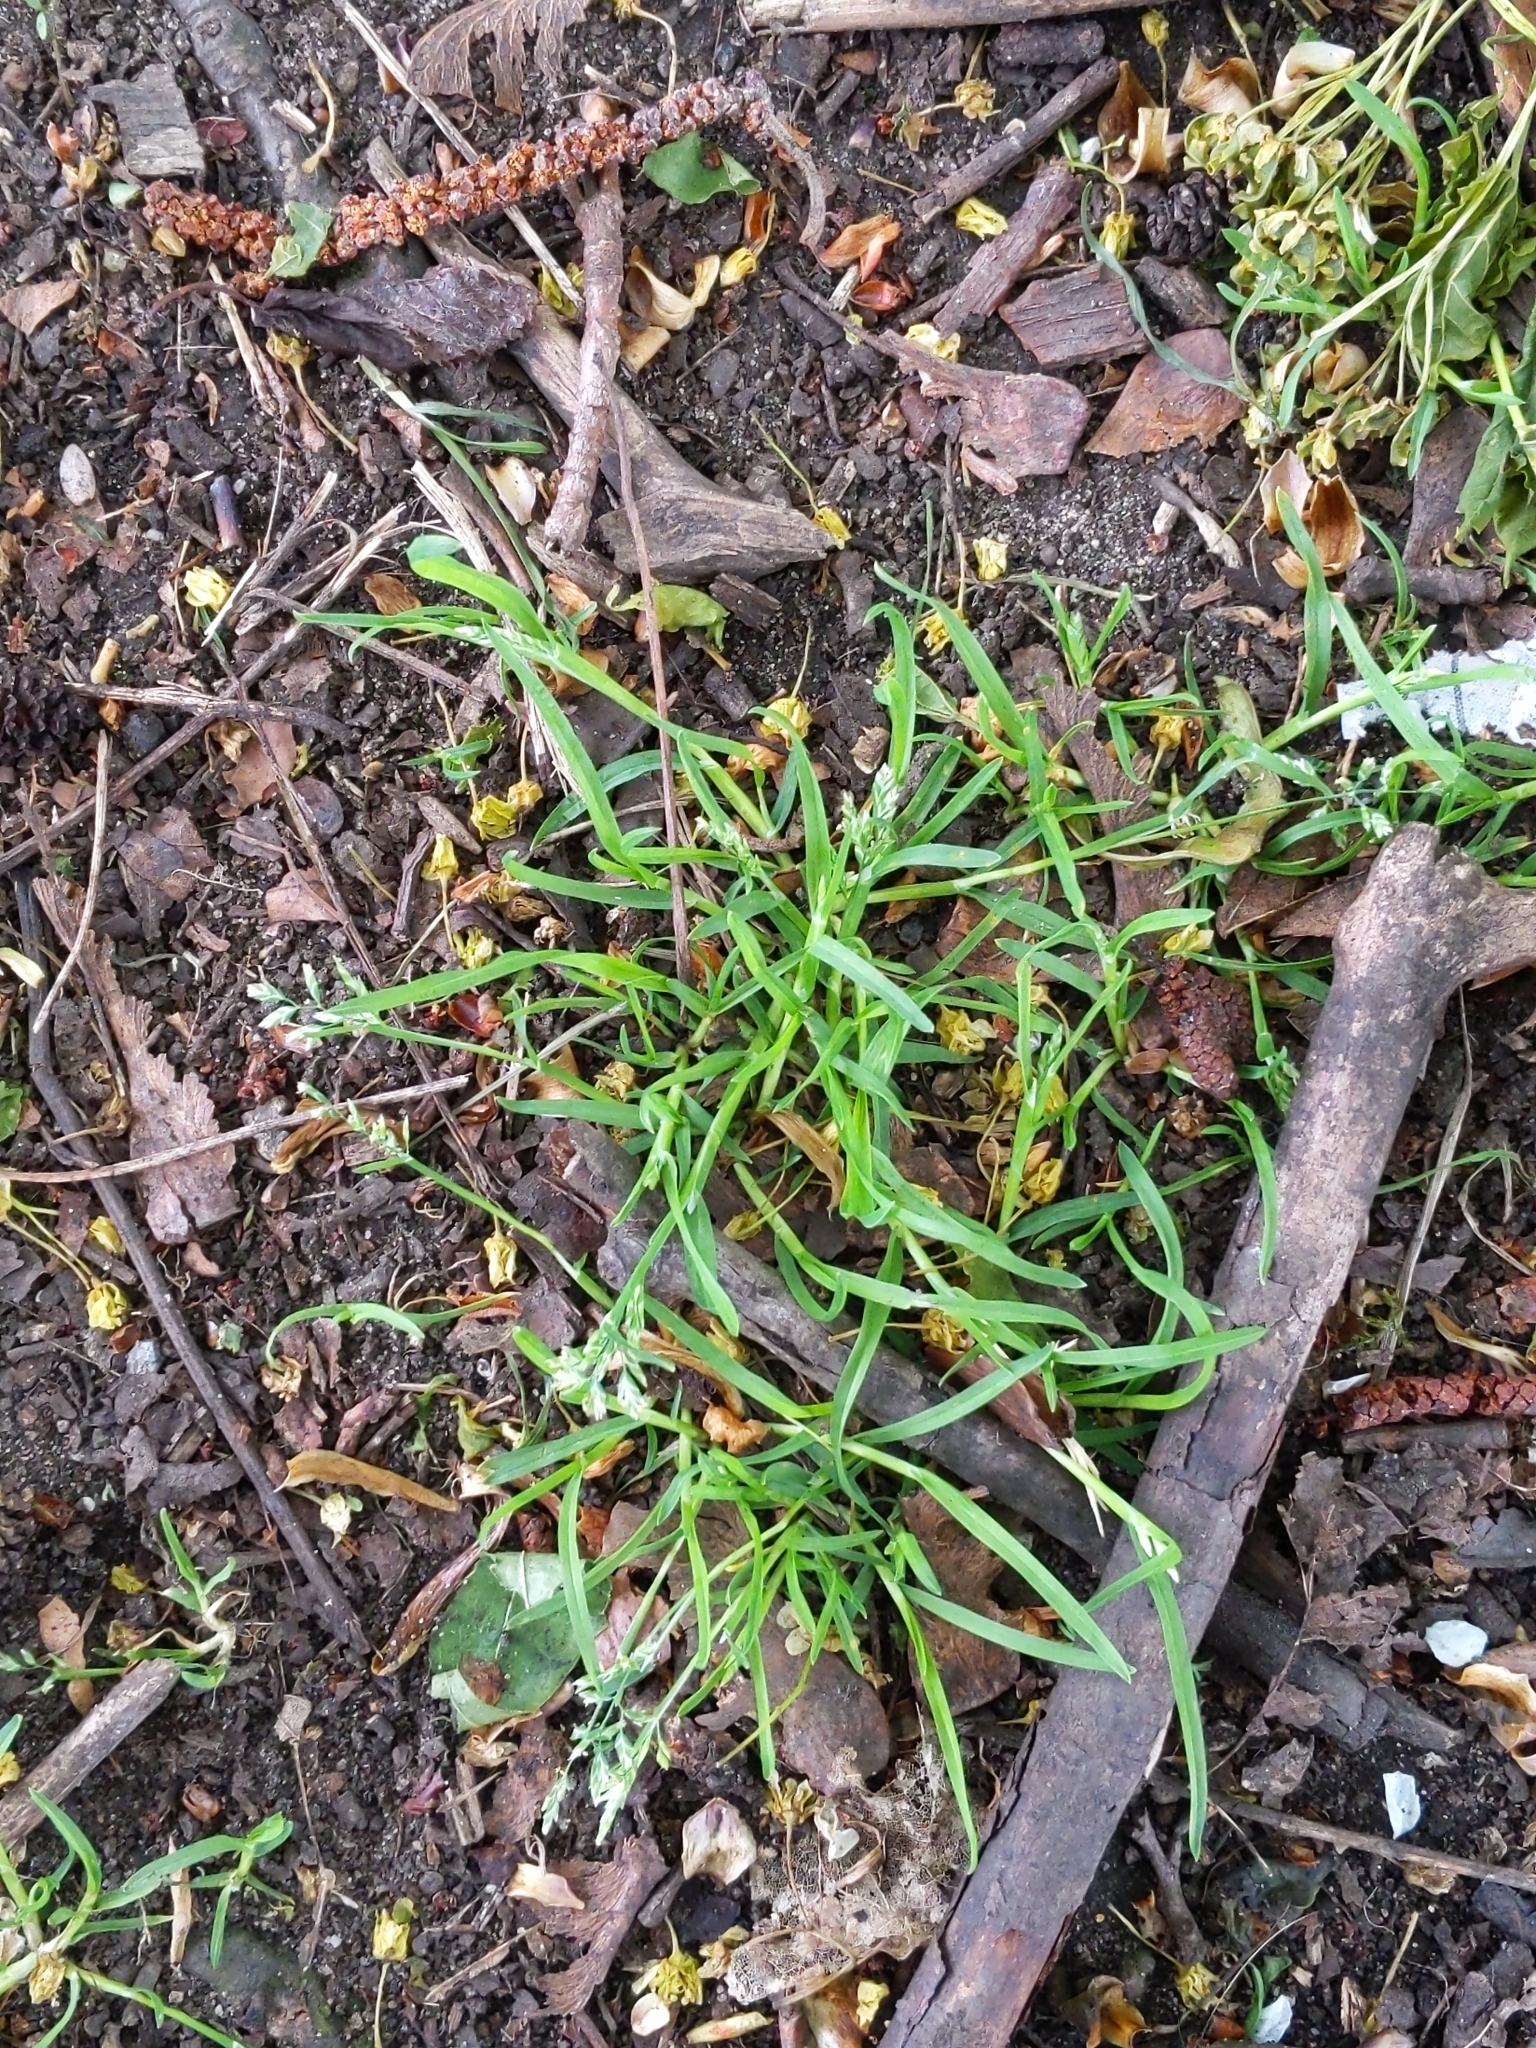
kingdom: Plantae
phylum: Tracheophyta
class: Liliopsida
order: Poales
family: Poaceae
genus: Poa
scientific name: Poa annua
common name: Annual bluegrass
